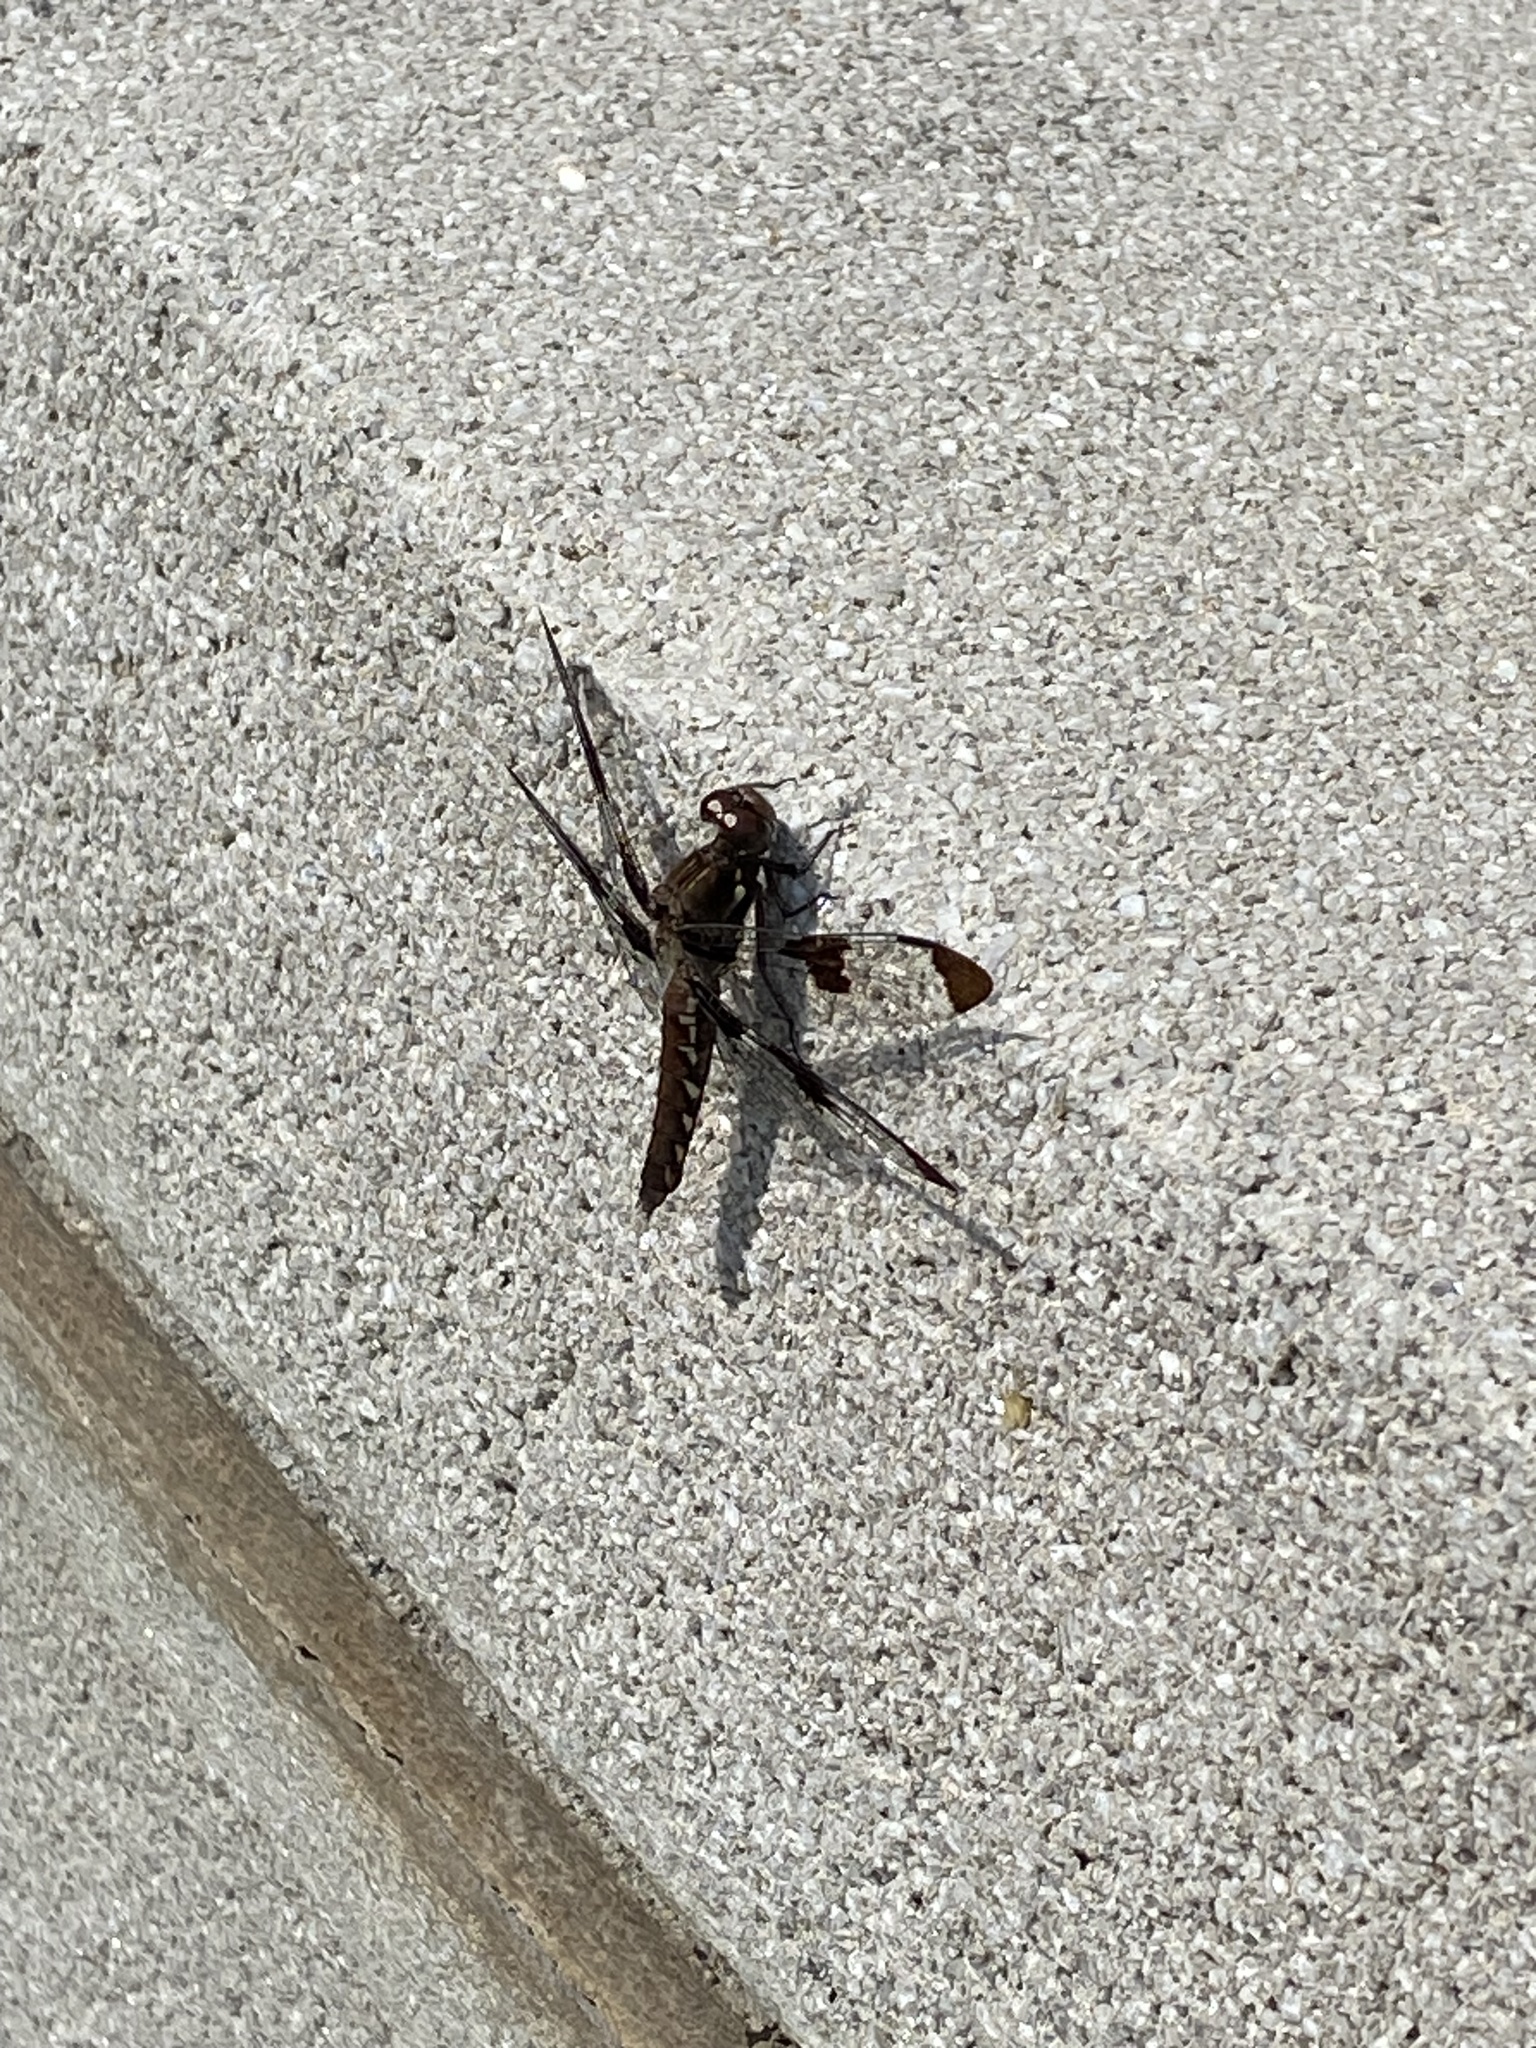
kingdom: Animalia
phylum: Arthropoda
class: Insecta
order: Odonata
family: Libellulidae
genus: Plathemis
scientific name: Plathemis lydia
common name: Common whitetail
